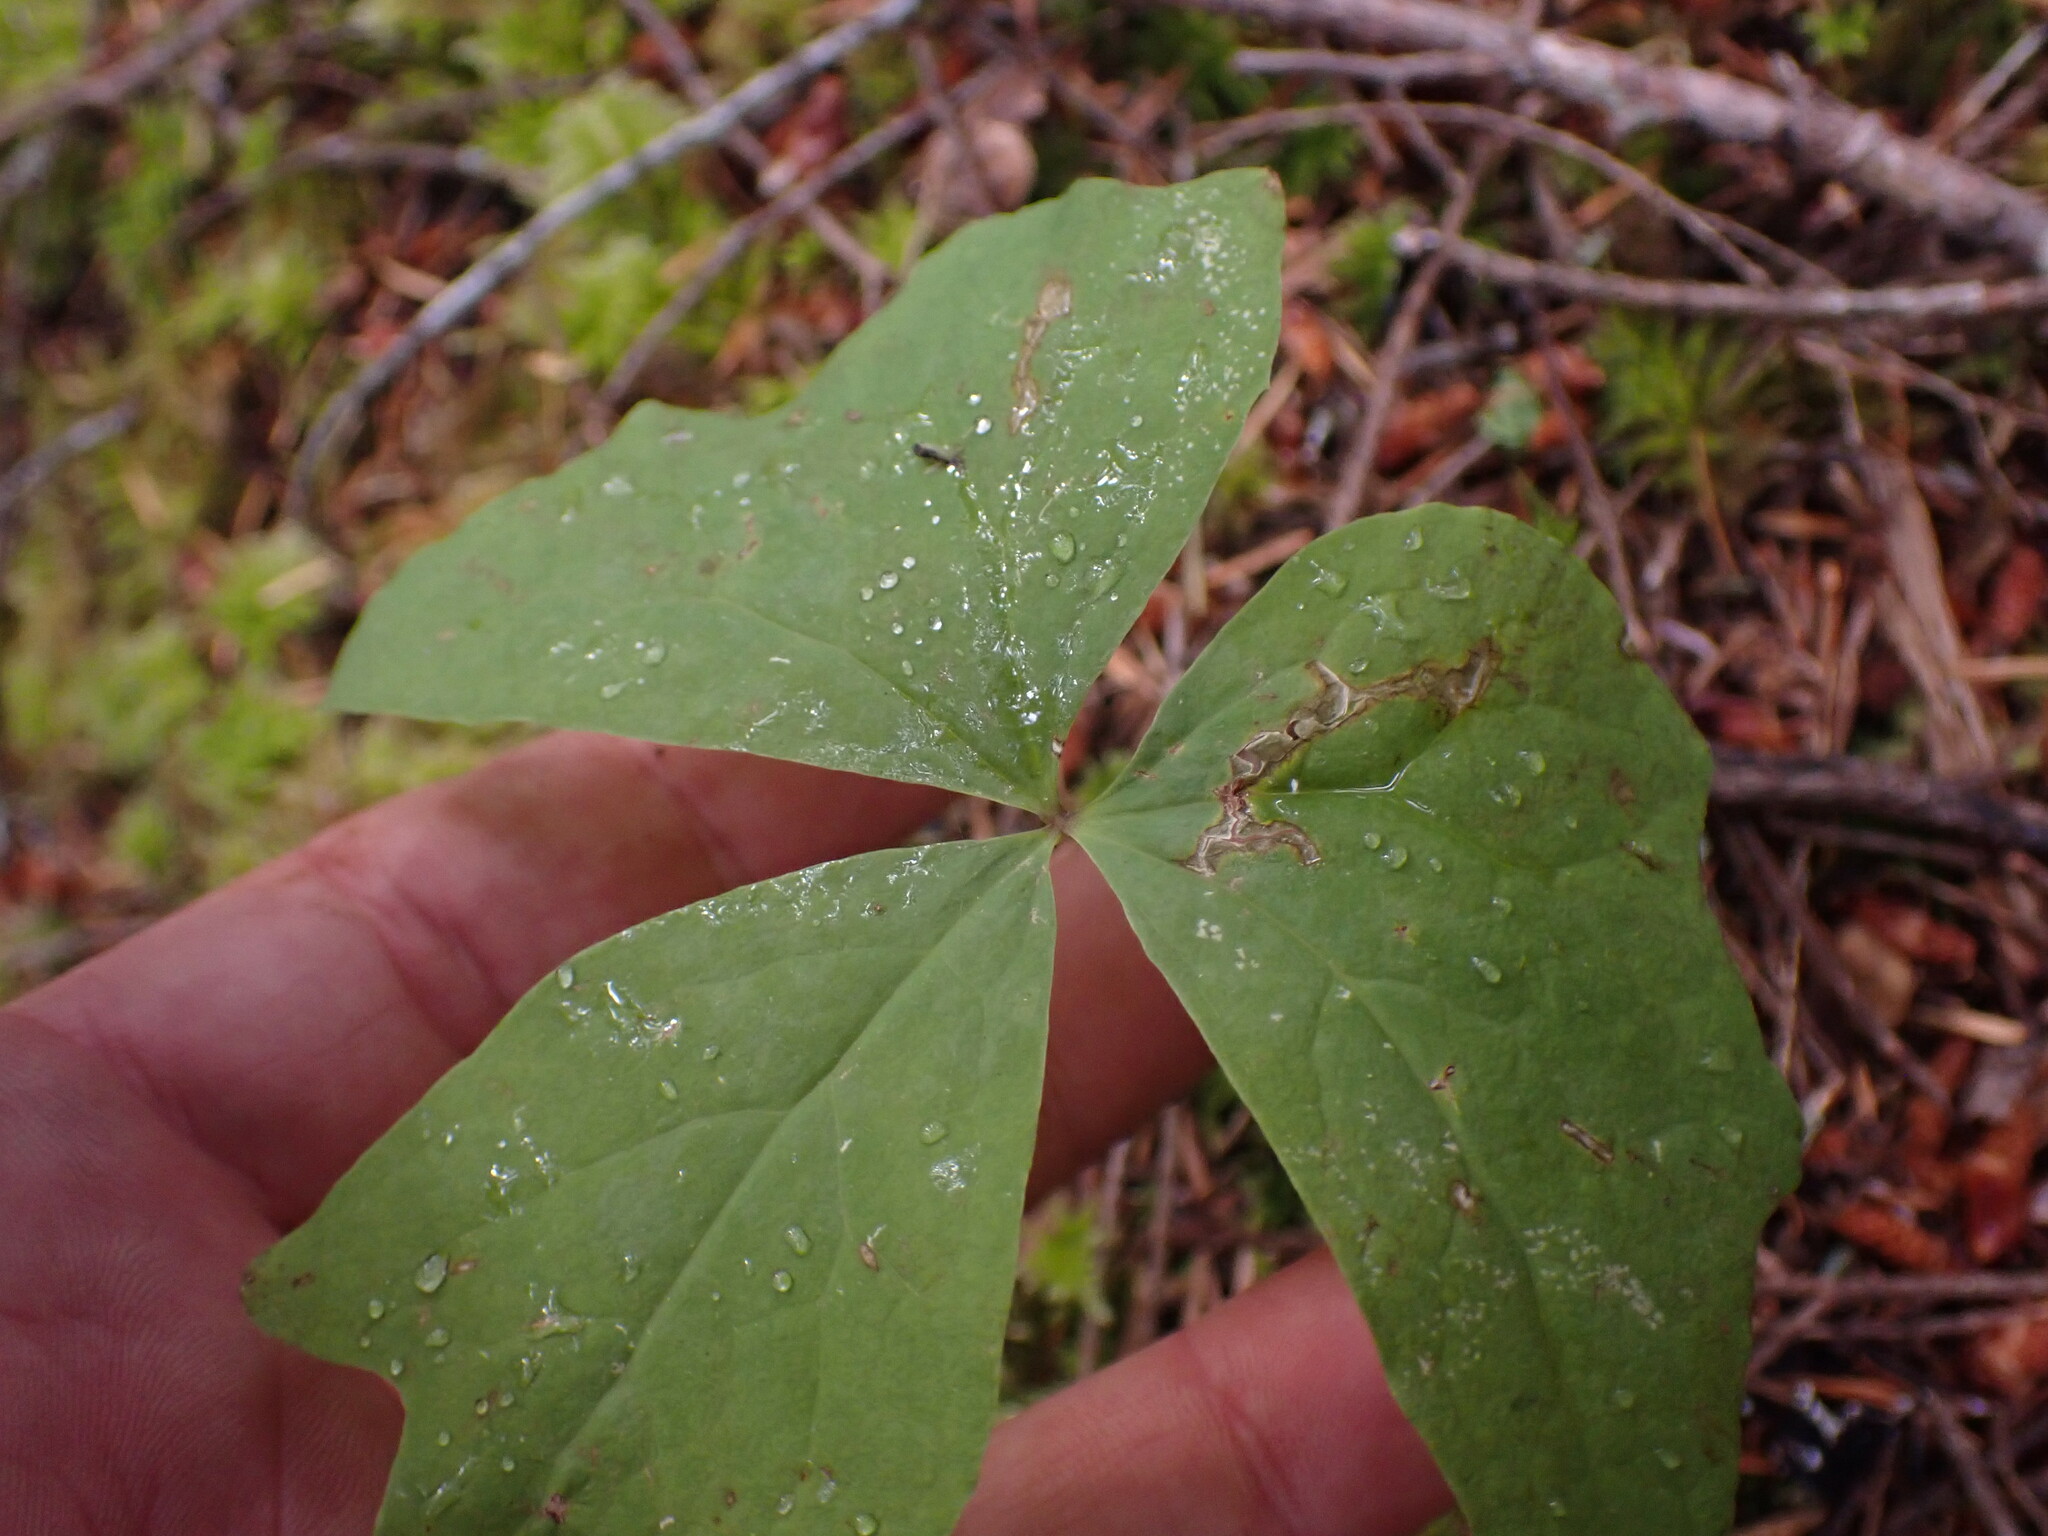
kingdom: Plantae
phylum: Tracheophyta
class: Magnoliopsida
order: Ranunculales
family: Berberidaceae
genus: Achlys
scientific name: Achlys triphylla
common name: Vanilla-leaf
